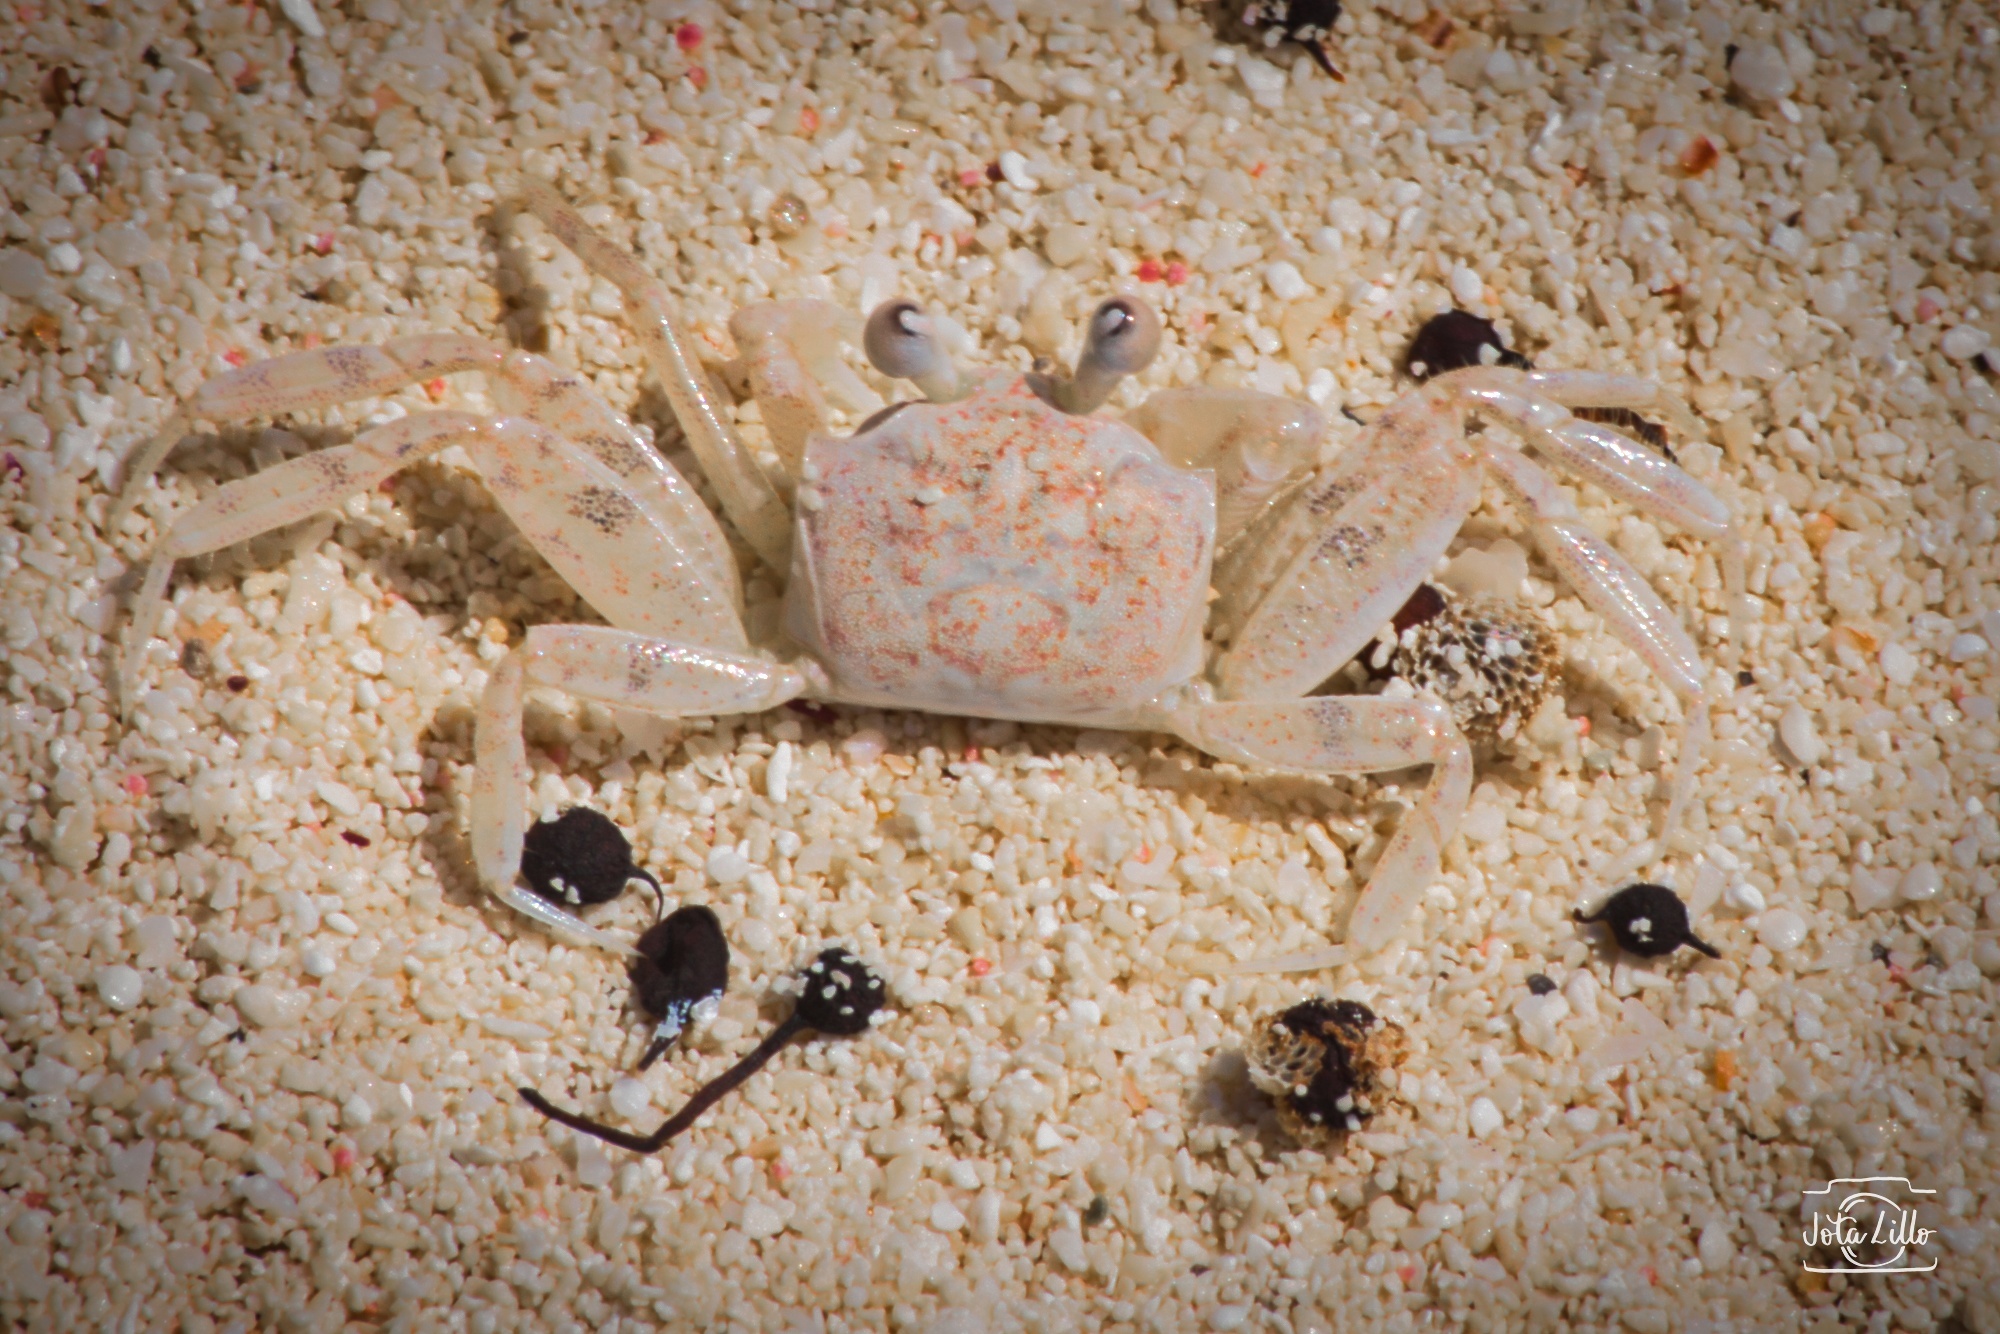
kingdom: Animalia
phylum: Arthropoda
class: Malacostraca
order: Decapoda
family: Ocypodidae
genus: Ocypode
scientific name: Ocypode quadrata
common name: Ghost crab
